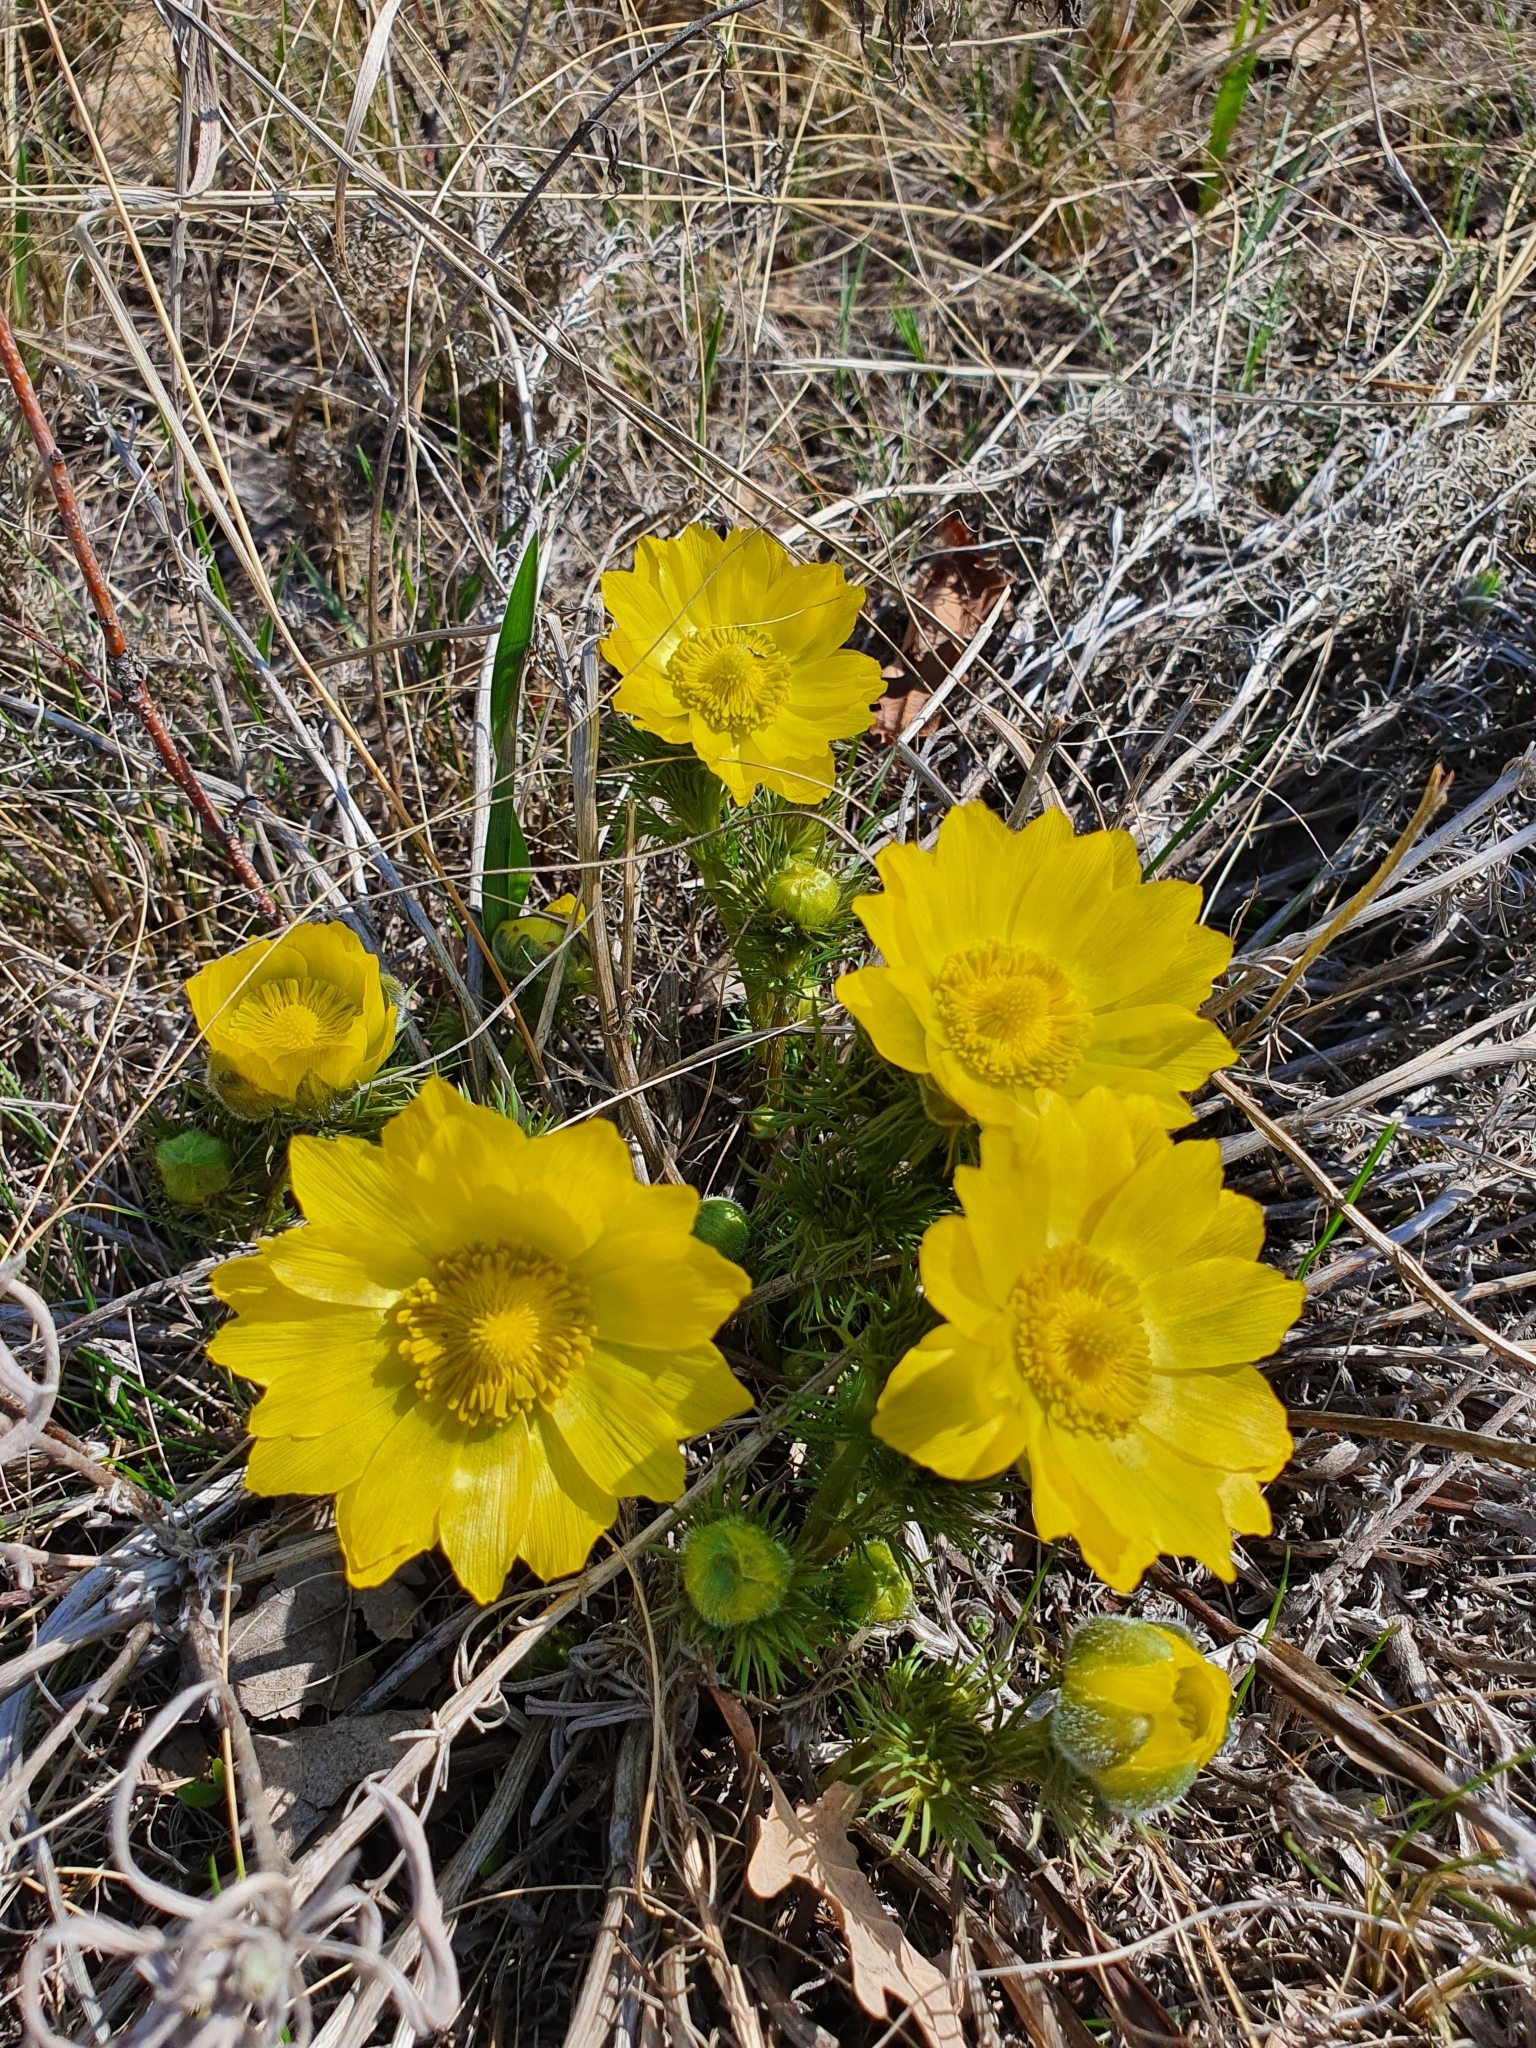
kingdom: Plantae
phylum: Tracheophyta
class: Magnoliopsida
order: Ranunculales
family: Ranunculaceae
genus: Adonis
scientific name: Adonis vernalis
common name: Yellow pheasants-eye
